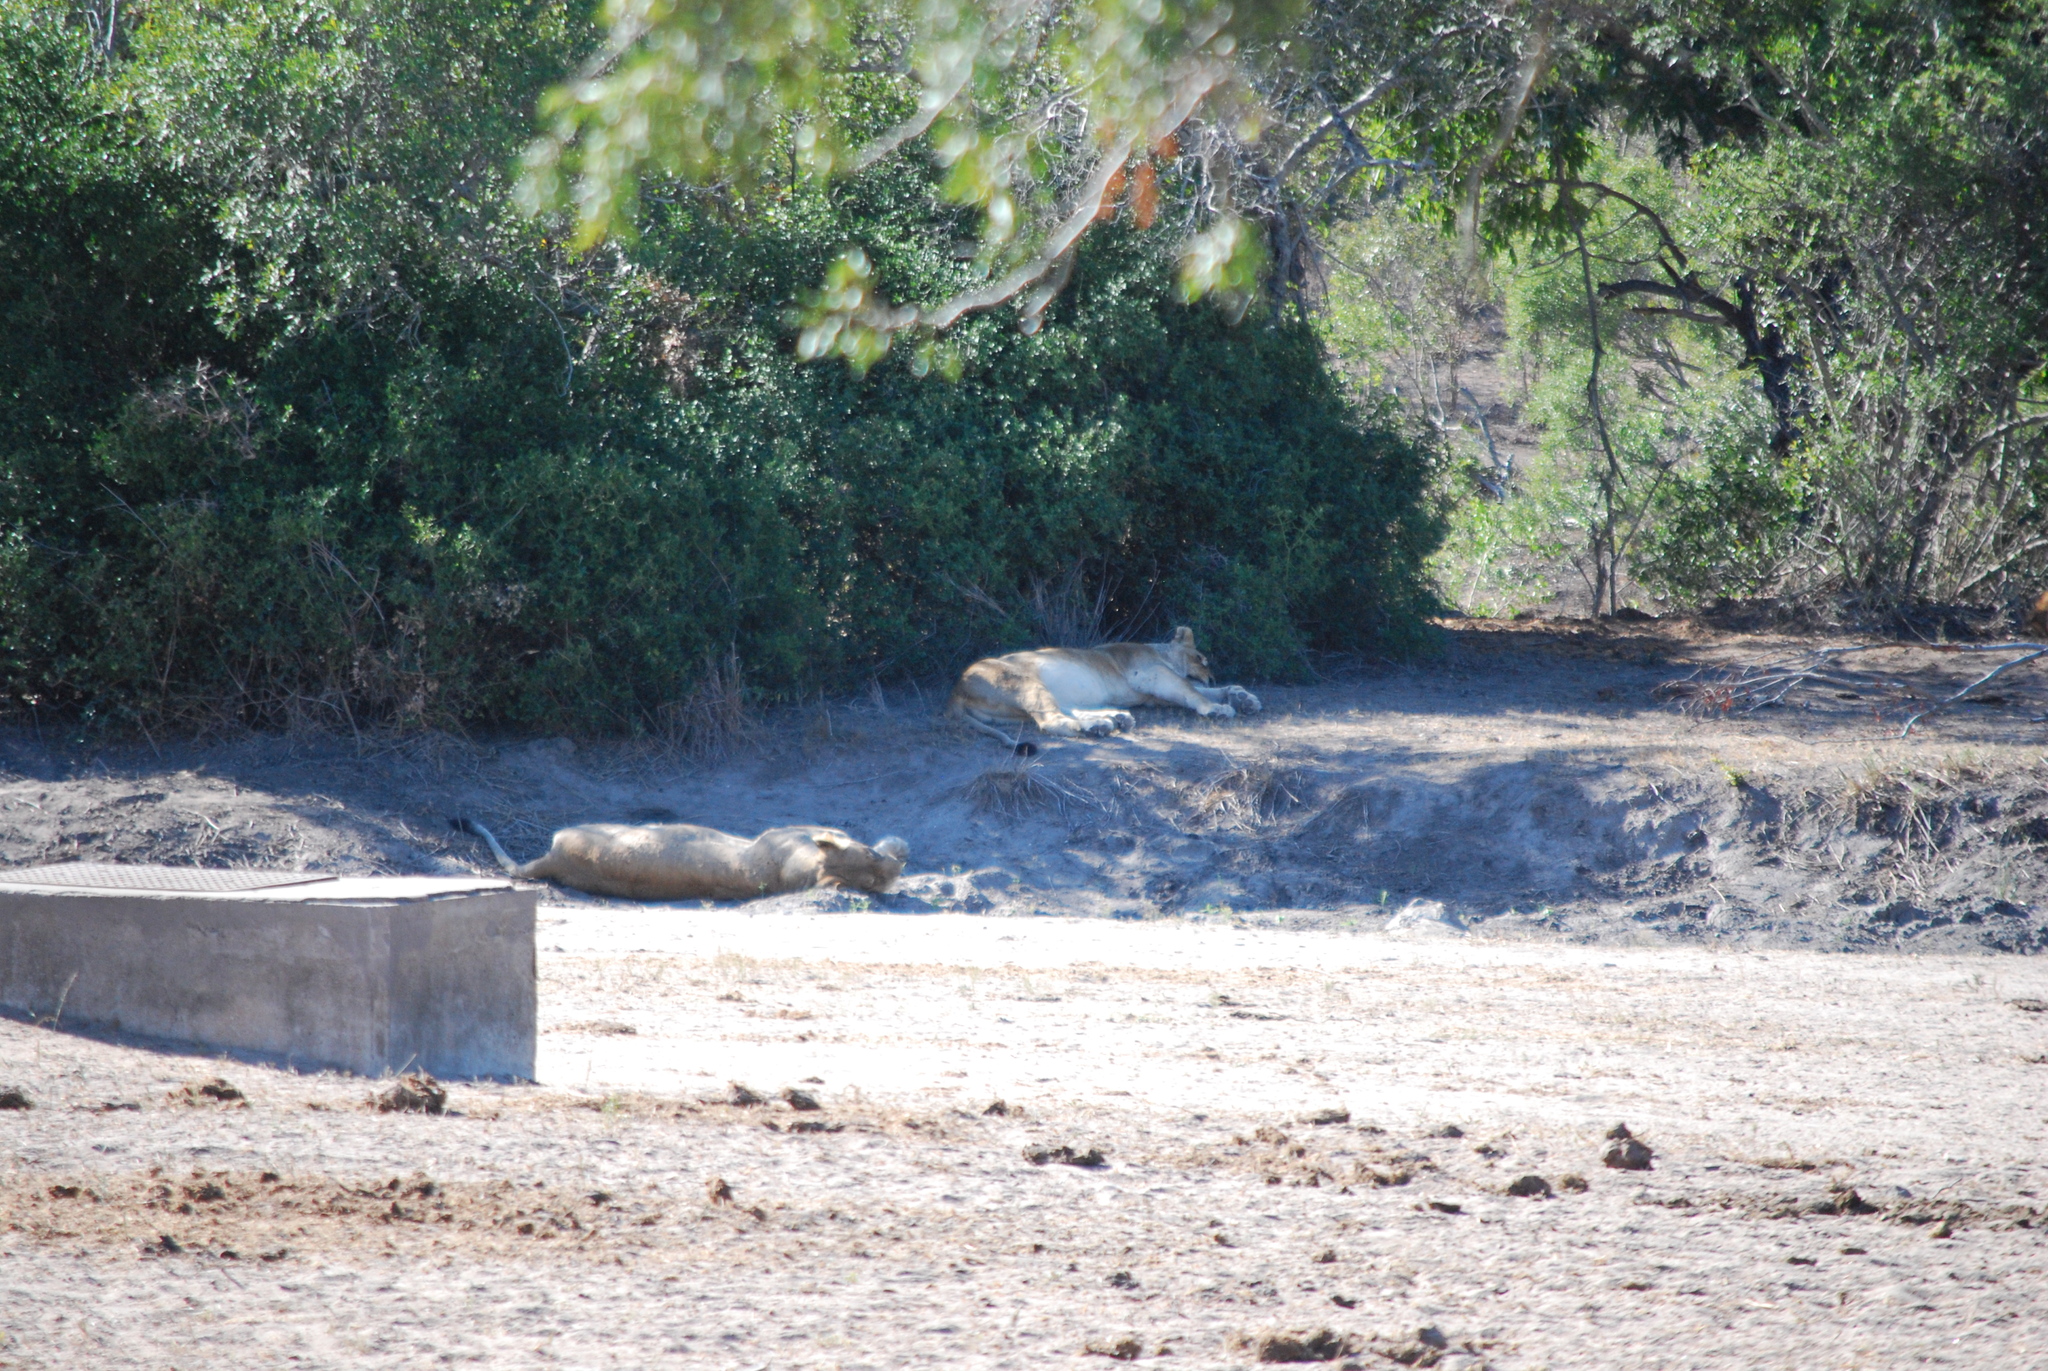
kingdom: Animalia
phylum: Chordata
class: Mammalia
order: Carnivora
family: Felidae
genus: Panthera
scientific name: Panthera leo
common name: Lion
